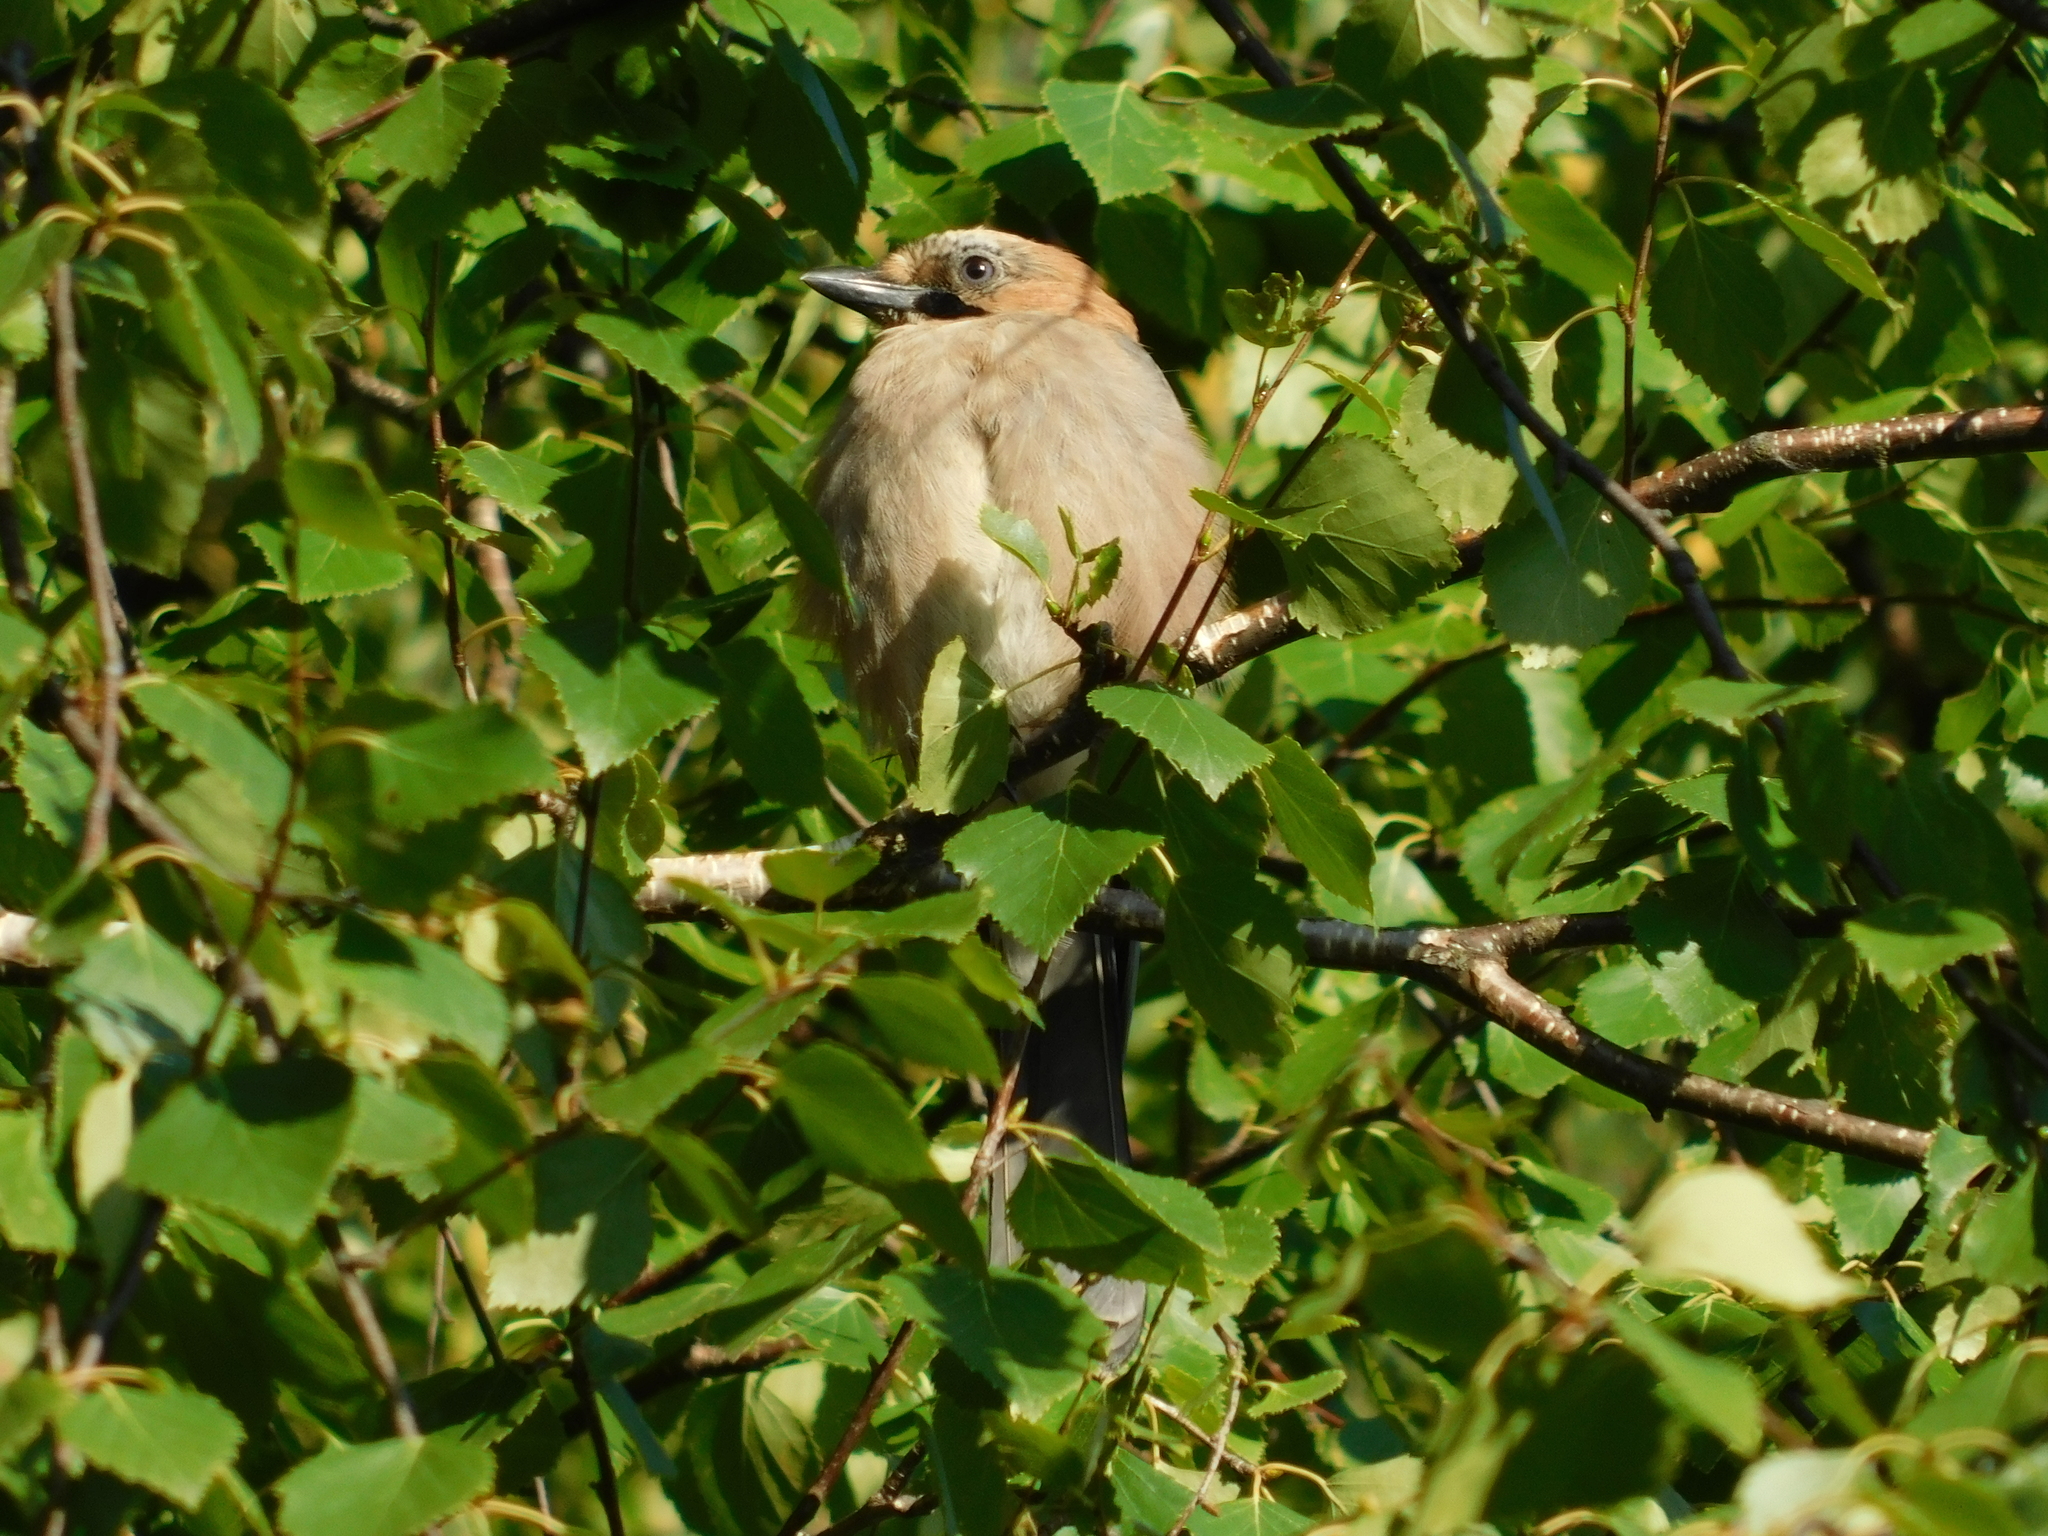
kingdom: Animalia
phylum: Chordata
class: Aves
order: Passeriformes
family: Corvidae
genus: Garrulus
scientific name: Garrulus glandarius
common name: Eurasian jay
